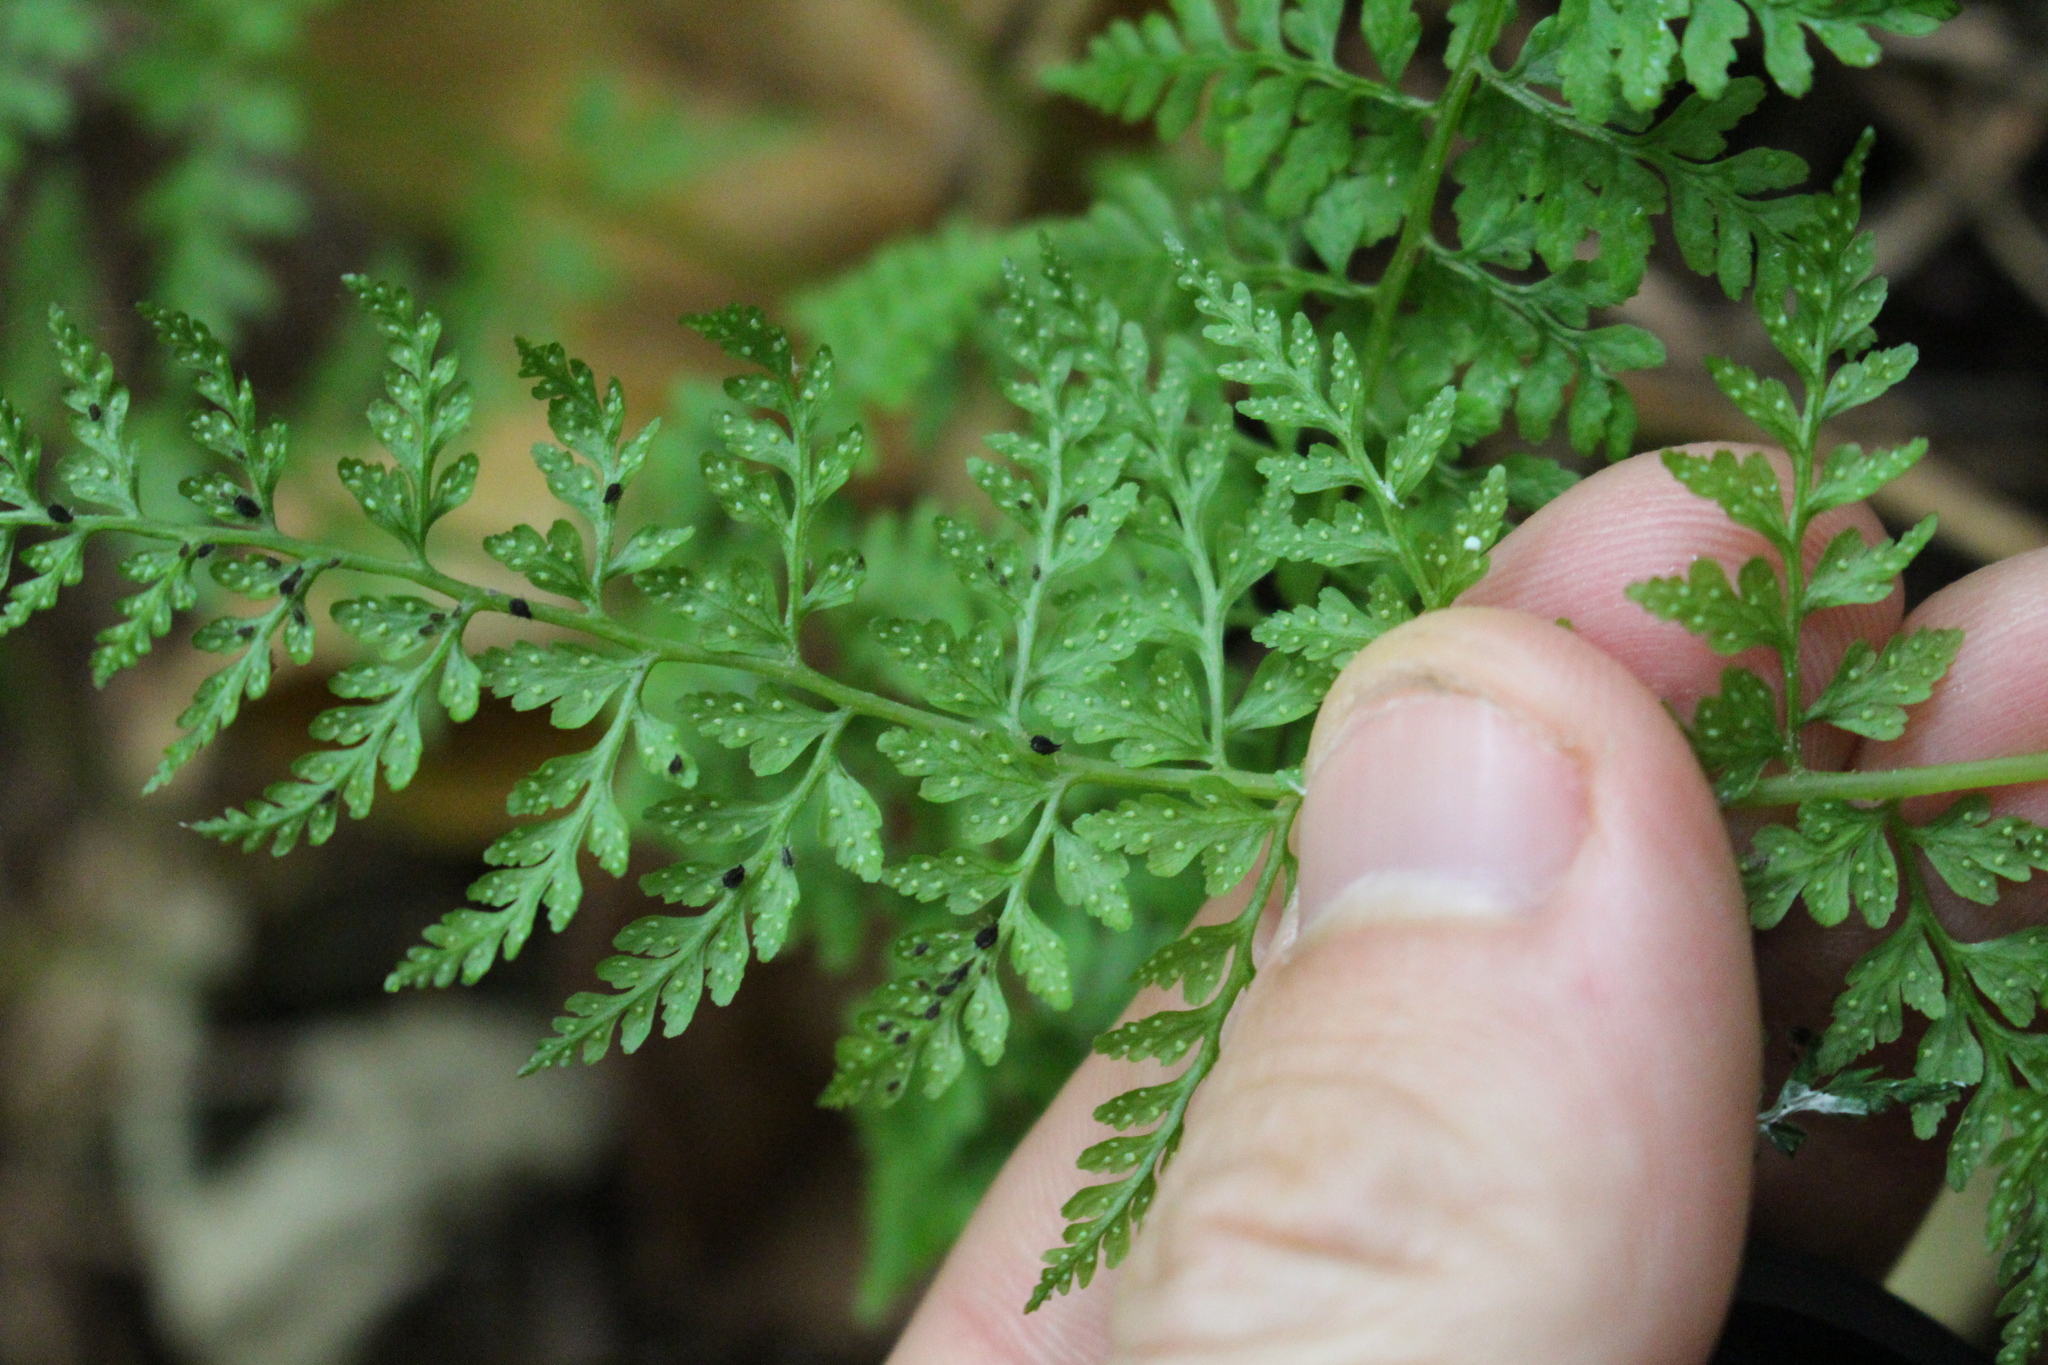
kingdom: Plantae
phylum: Tracheophyta
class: Polypodiopsida
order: Polypodiales
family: Cystopteridaceae
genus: Cystopteris
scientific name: Cystopteris fragilis
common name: Brittle bladder fern
